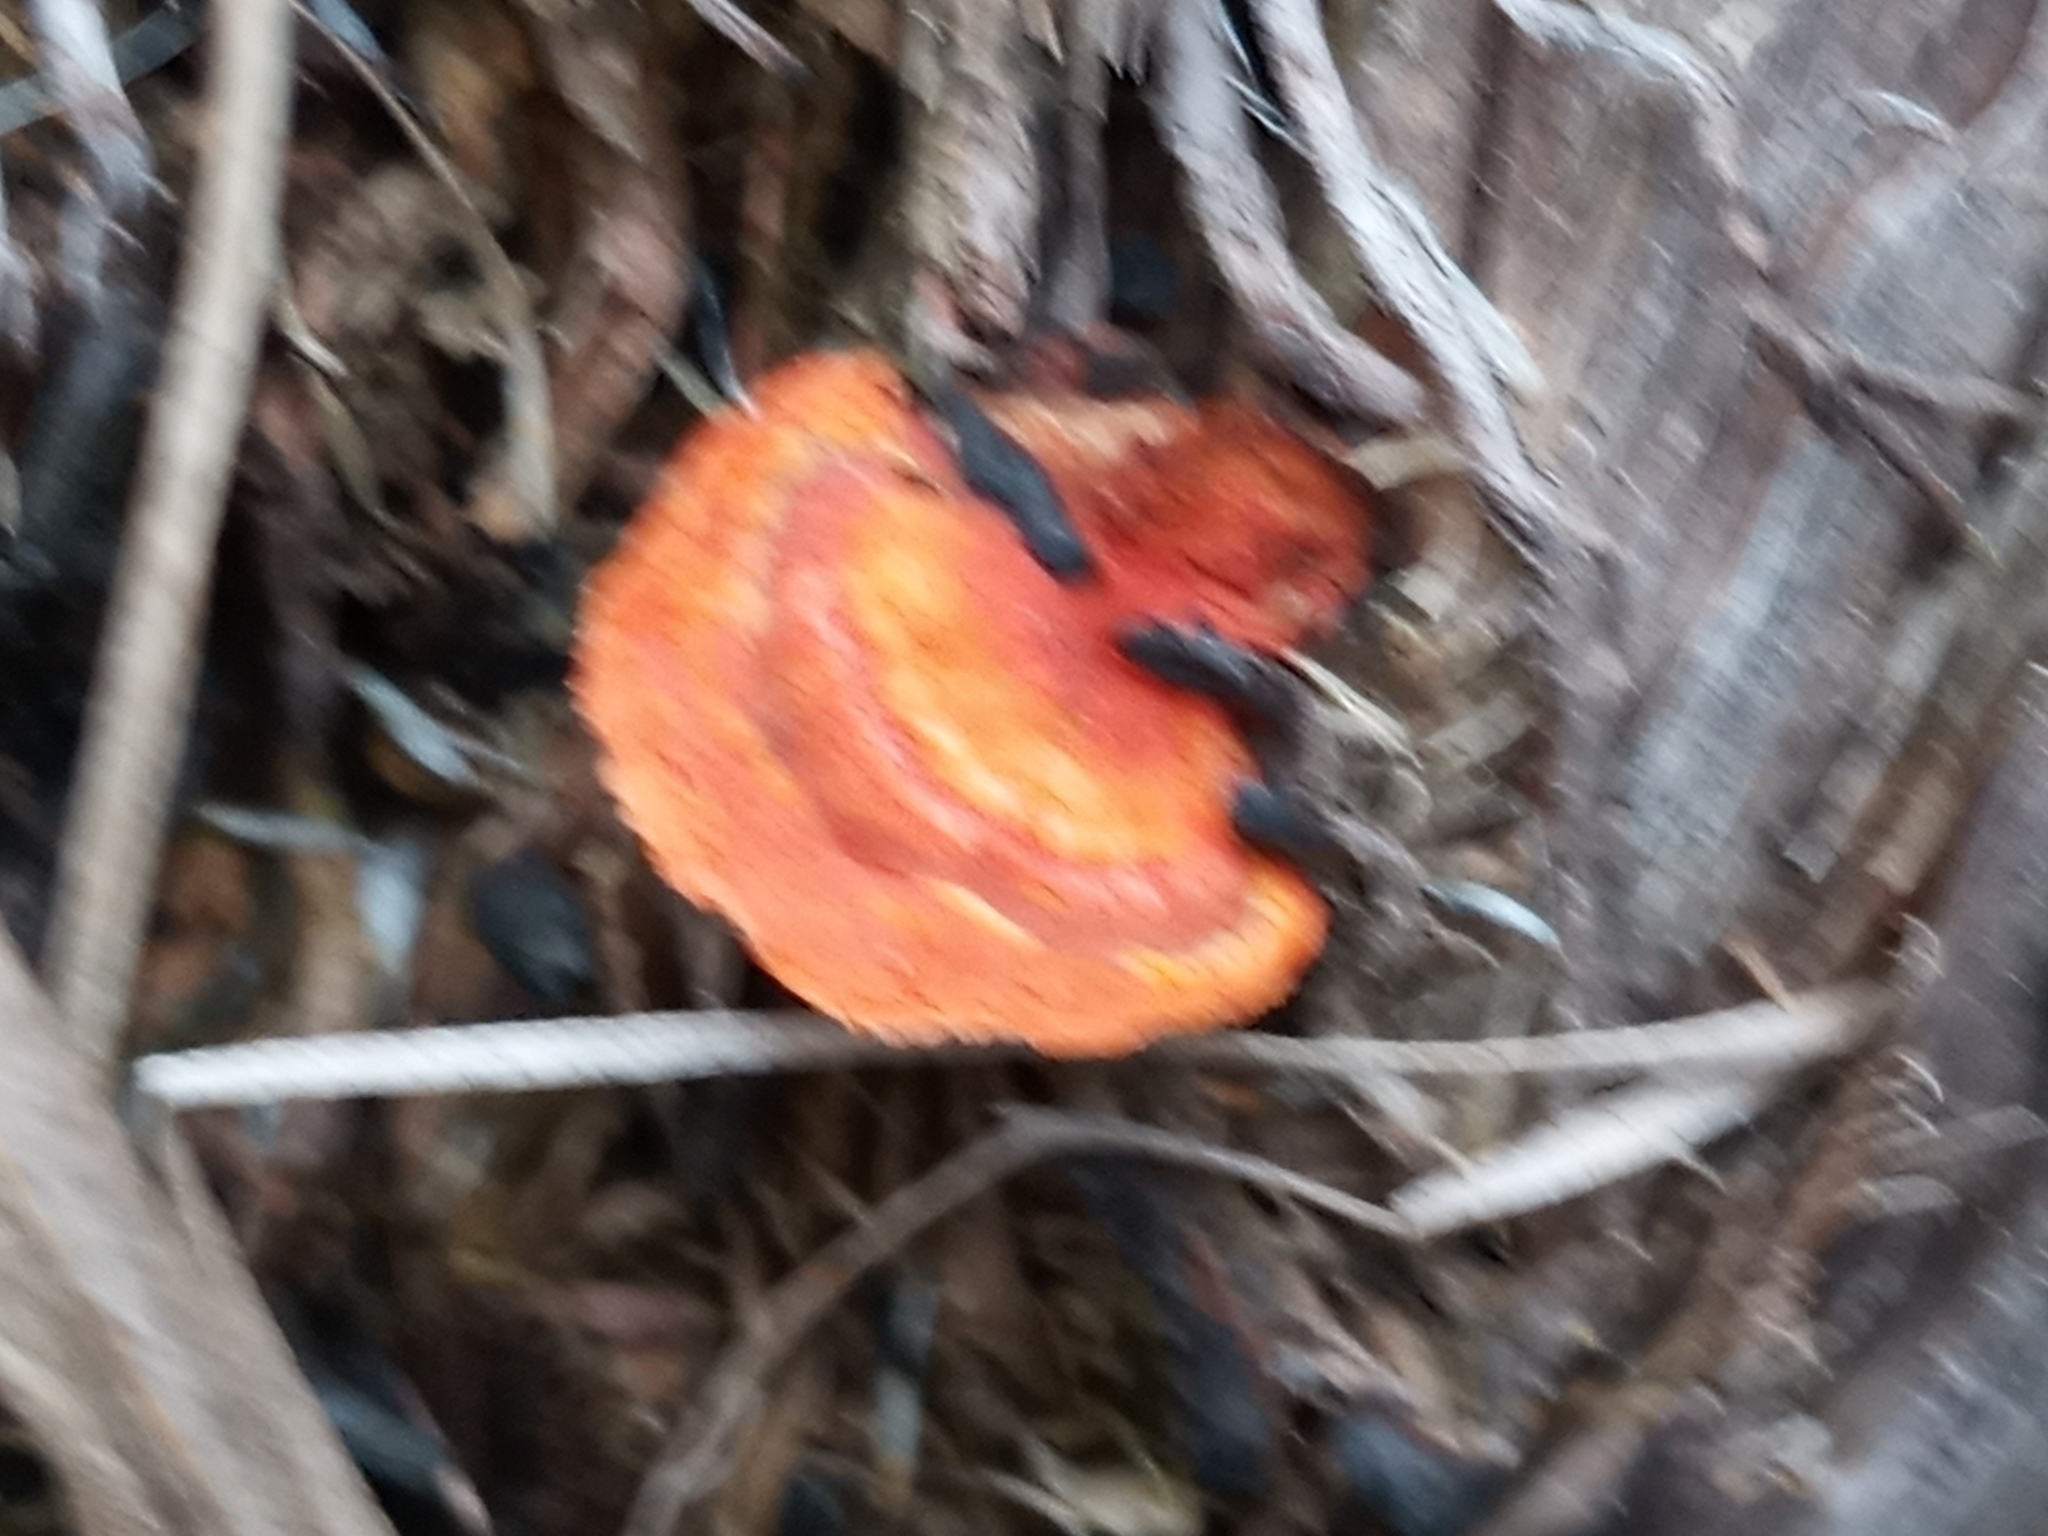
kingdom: Fungi
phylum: Basidiomycota
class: Agaricomycetes
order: Polyporales
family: Polyporaceae
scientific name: Polyporaceae
